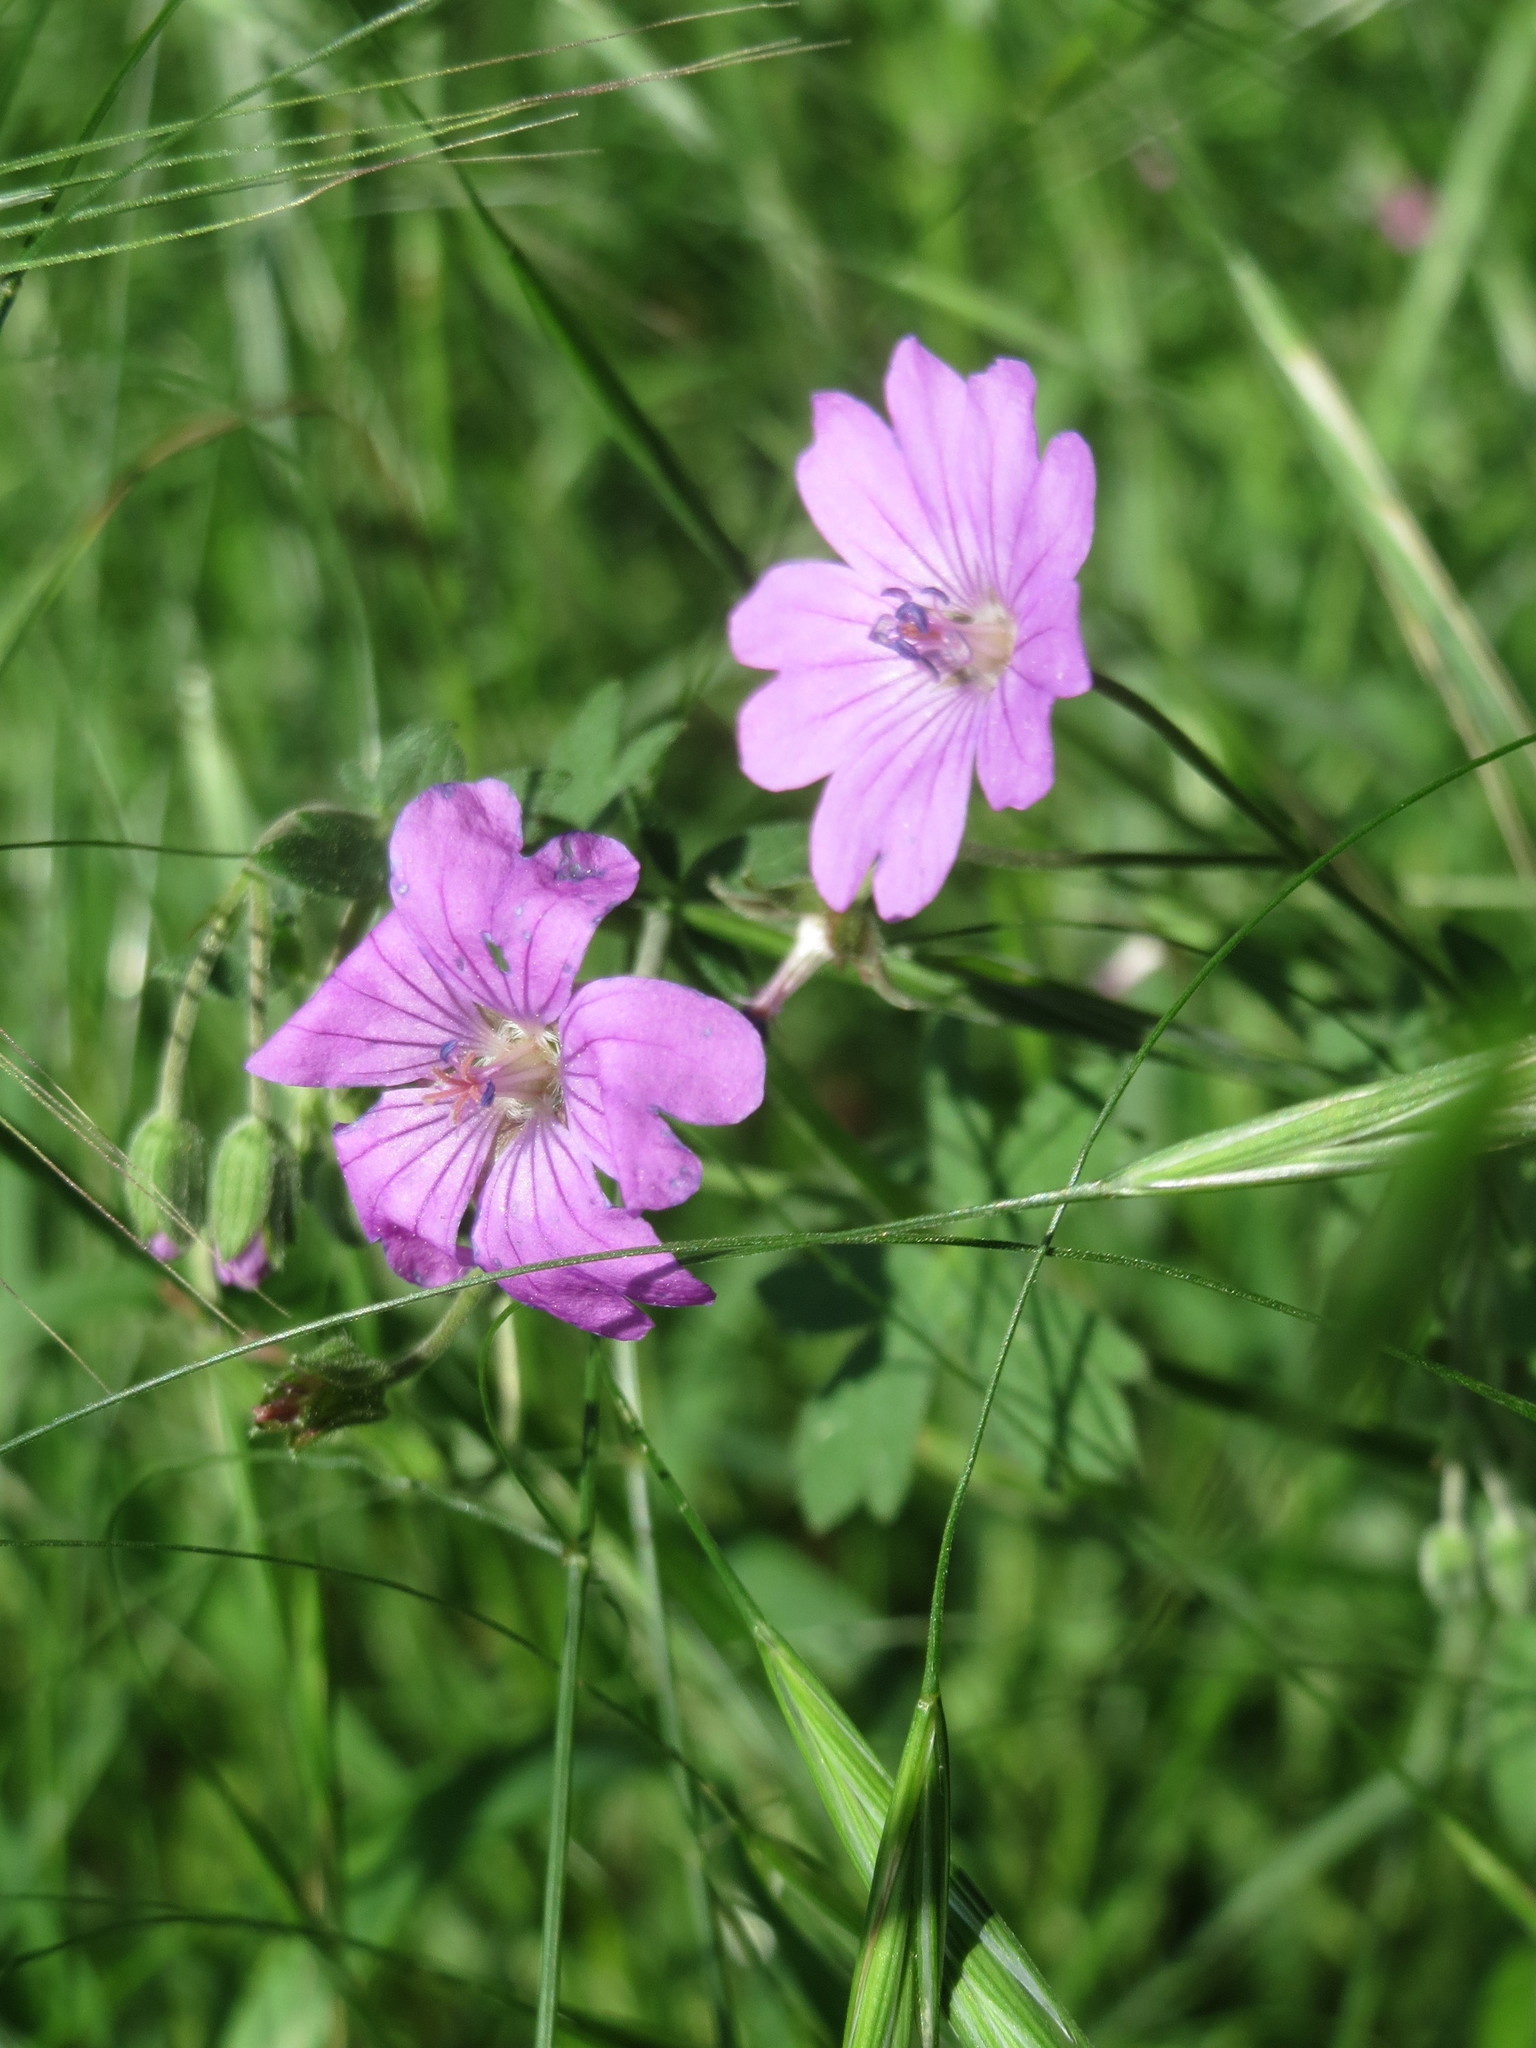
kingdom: Plantae
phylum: Tracheophyta
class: Magnoliopsida
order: Geraniales
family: Geraniaceae
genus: Geranium
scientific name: Geranium pyrenaicum
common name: Hedgerow crane's-bill
